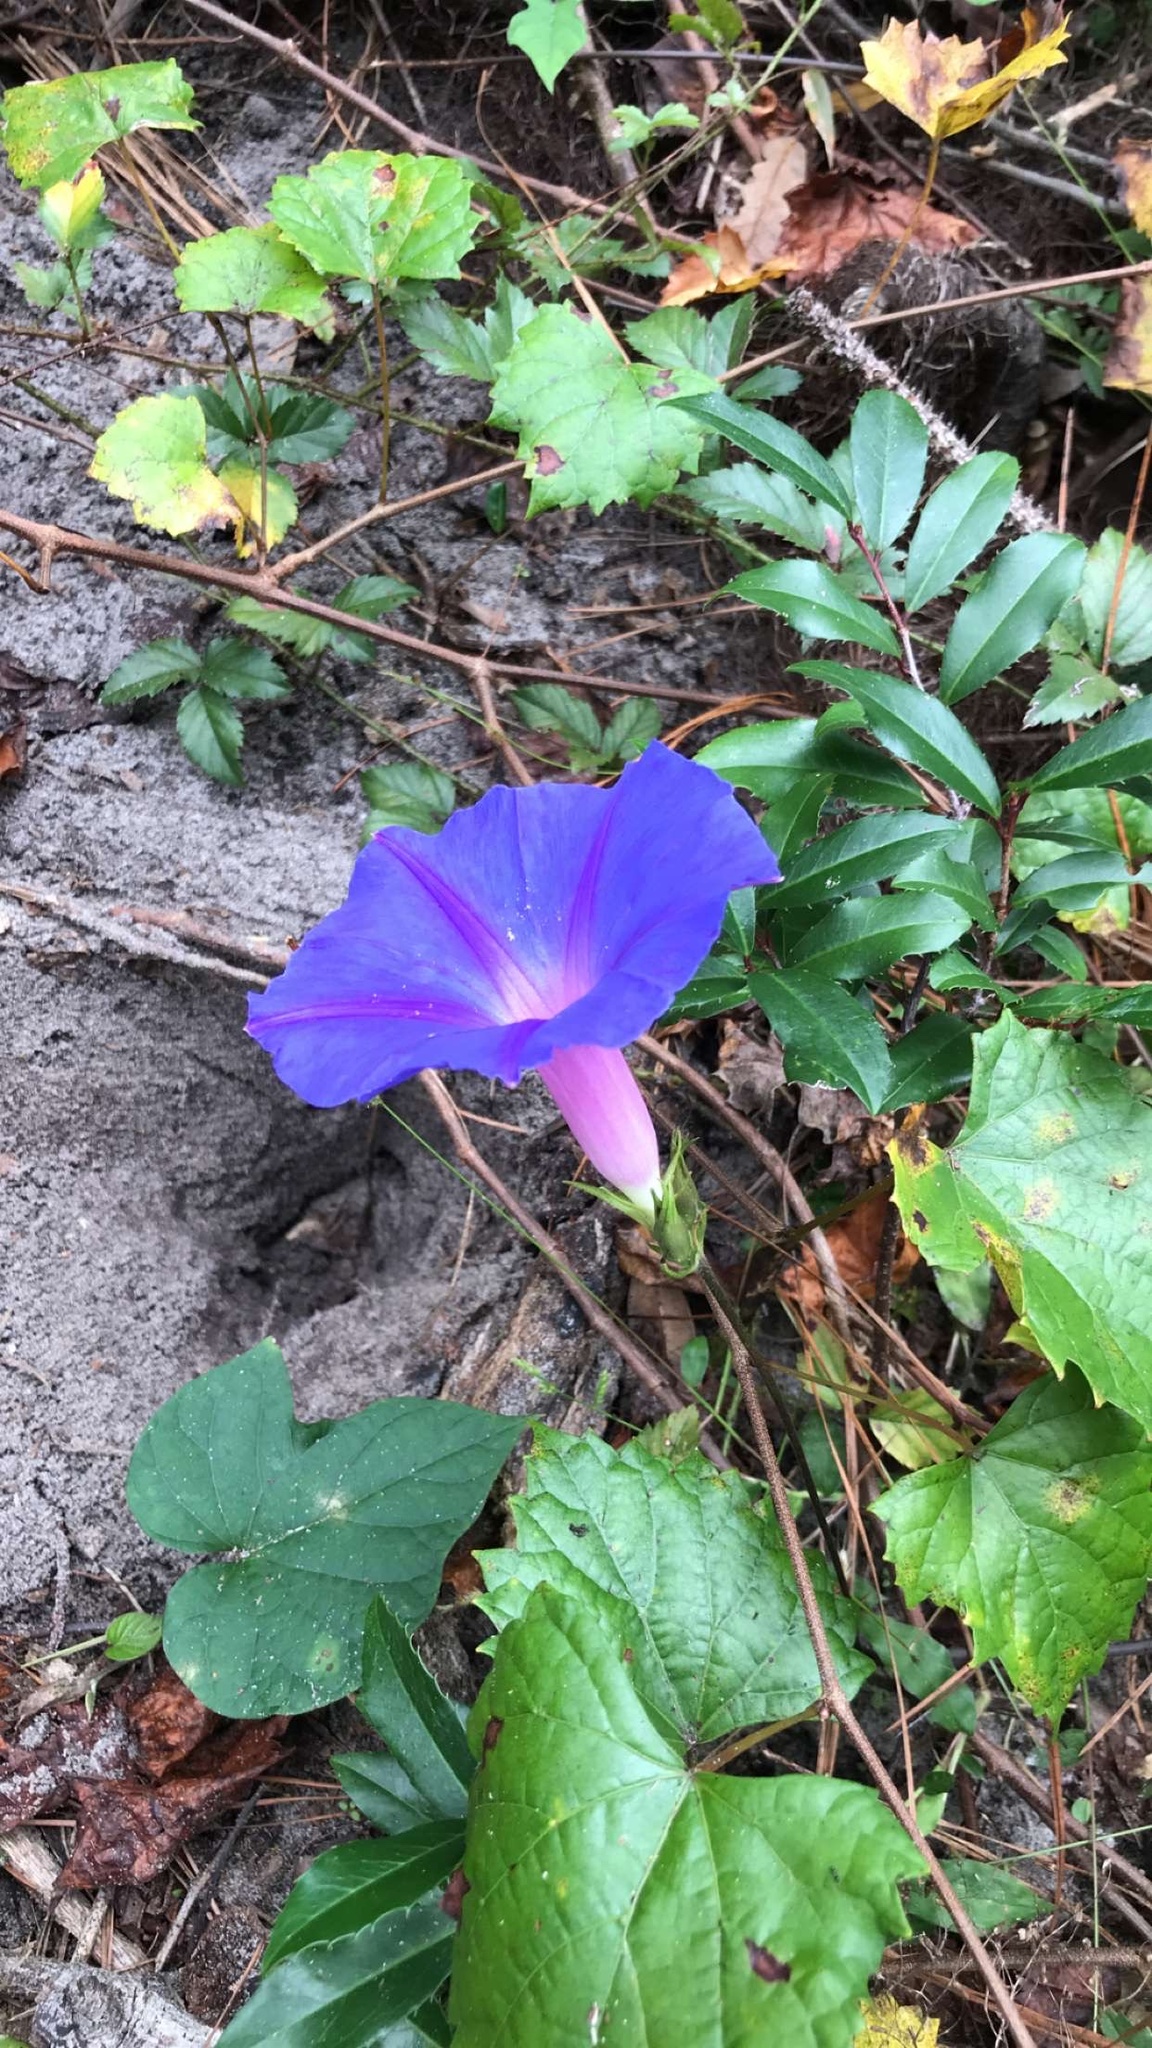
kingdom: Plantae
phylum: Tracheophyta
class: Magnoliopsida
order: Solanales
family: Convolvulaceae
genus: Ipomoea
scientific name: Ipomoea indica
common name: Blue dawnflower
